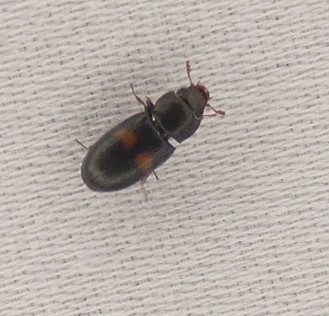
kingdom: Animalia
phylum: Arthropoda
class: Insecta
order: Coleoptera
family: Trogossitidae
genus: Tenebroides
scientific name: Tenebroides
